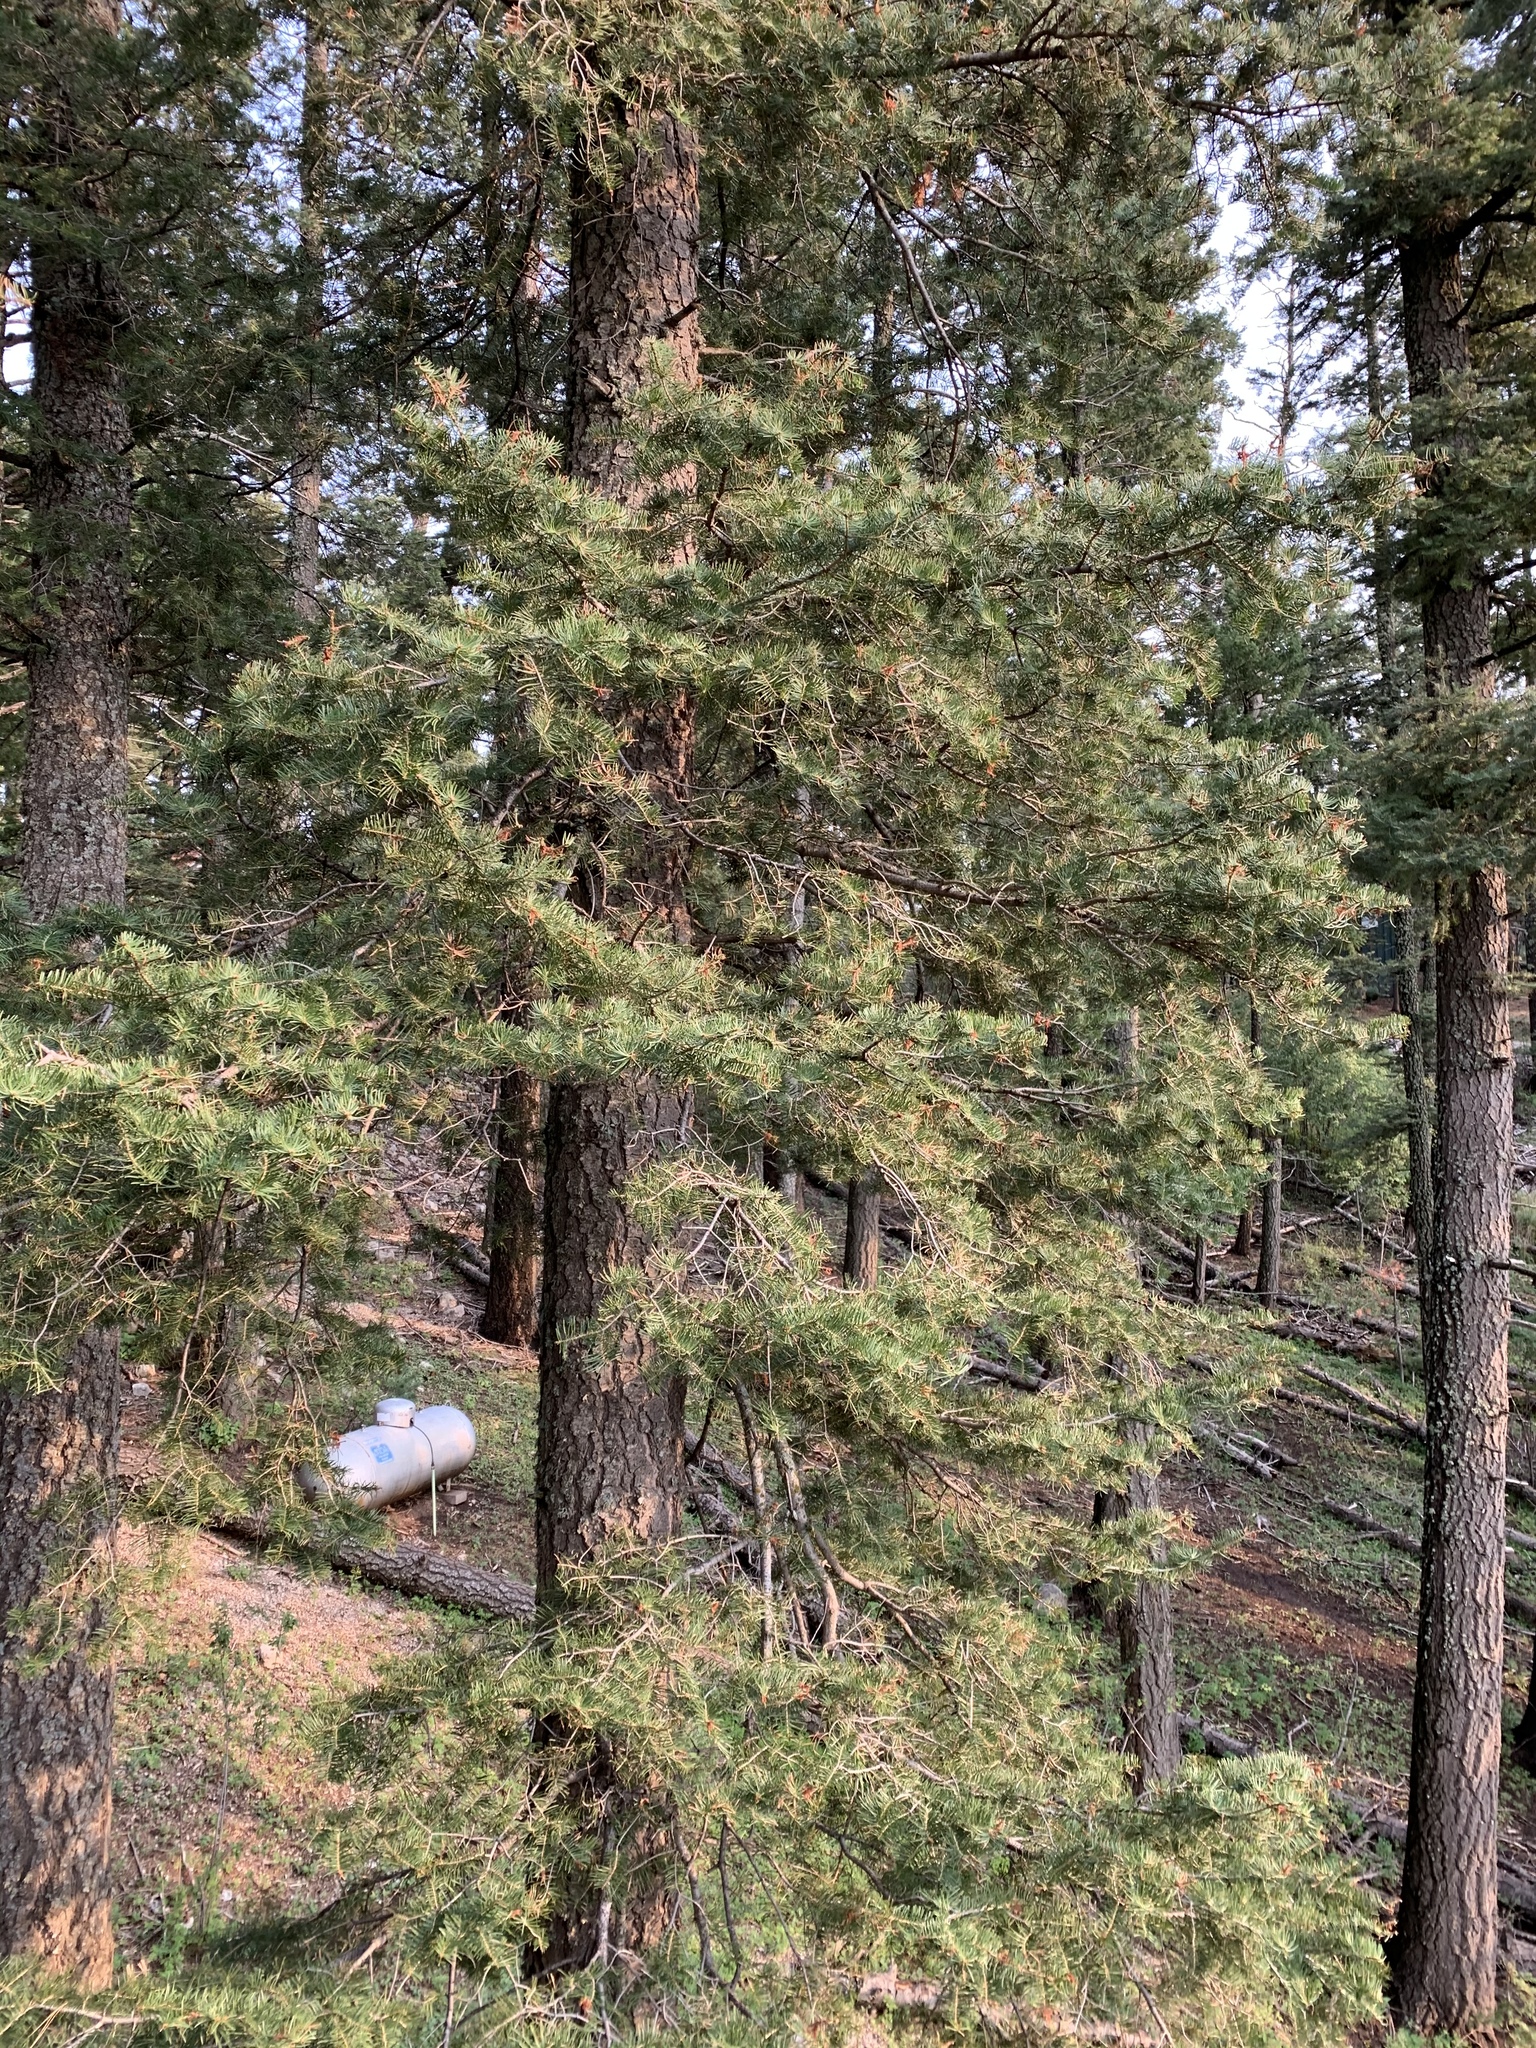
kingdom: Plantae
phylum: Tracheophyta
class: Pinopsida
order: Pinales
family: Pinaceae
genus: Abies
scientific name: Abies concolor
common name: Colorado fir
